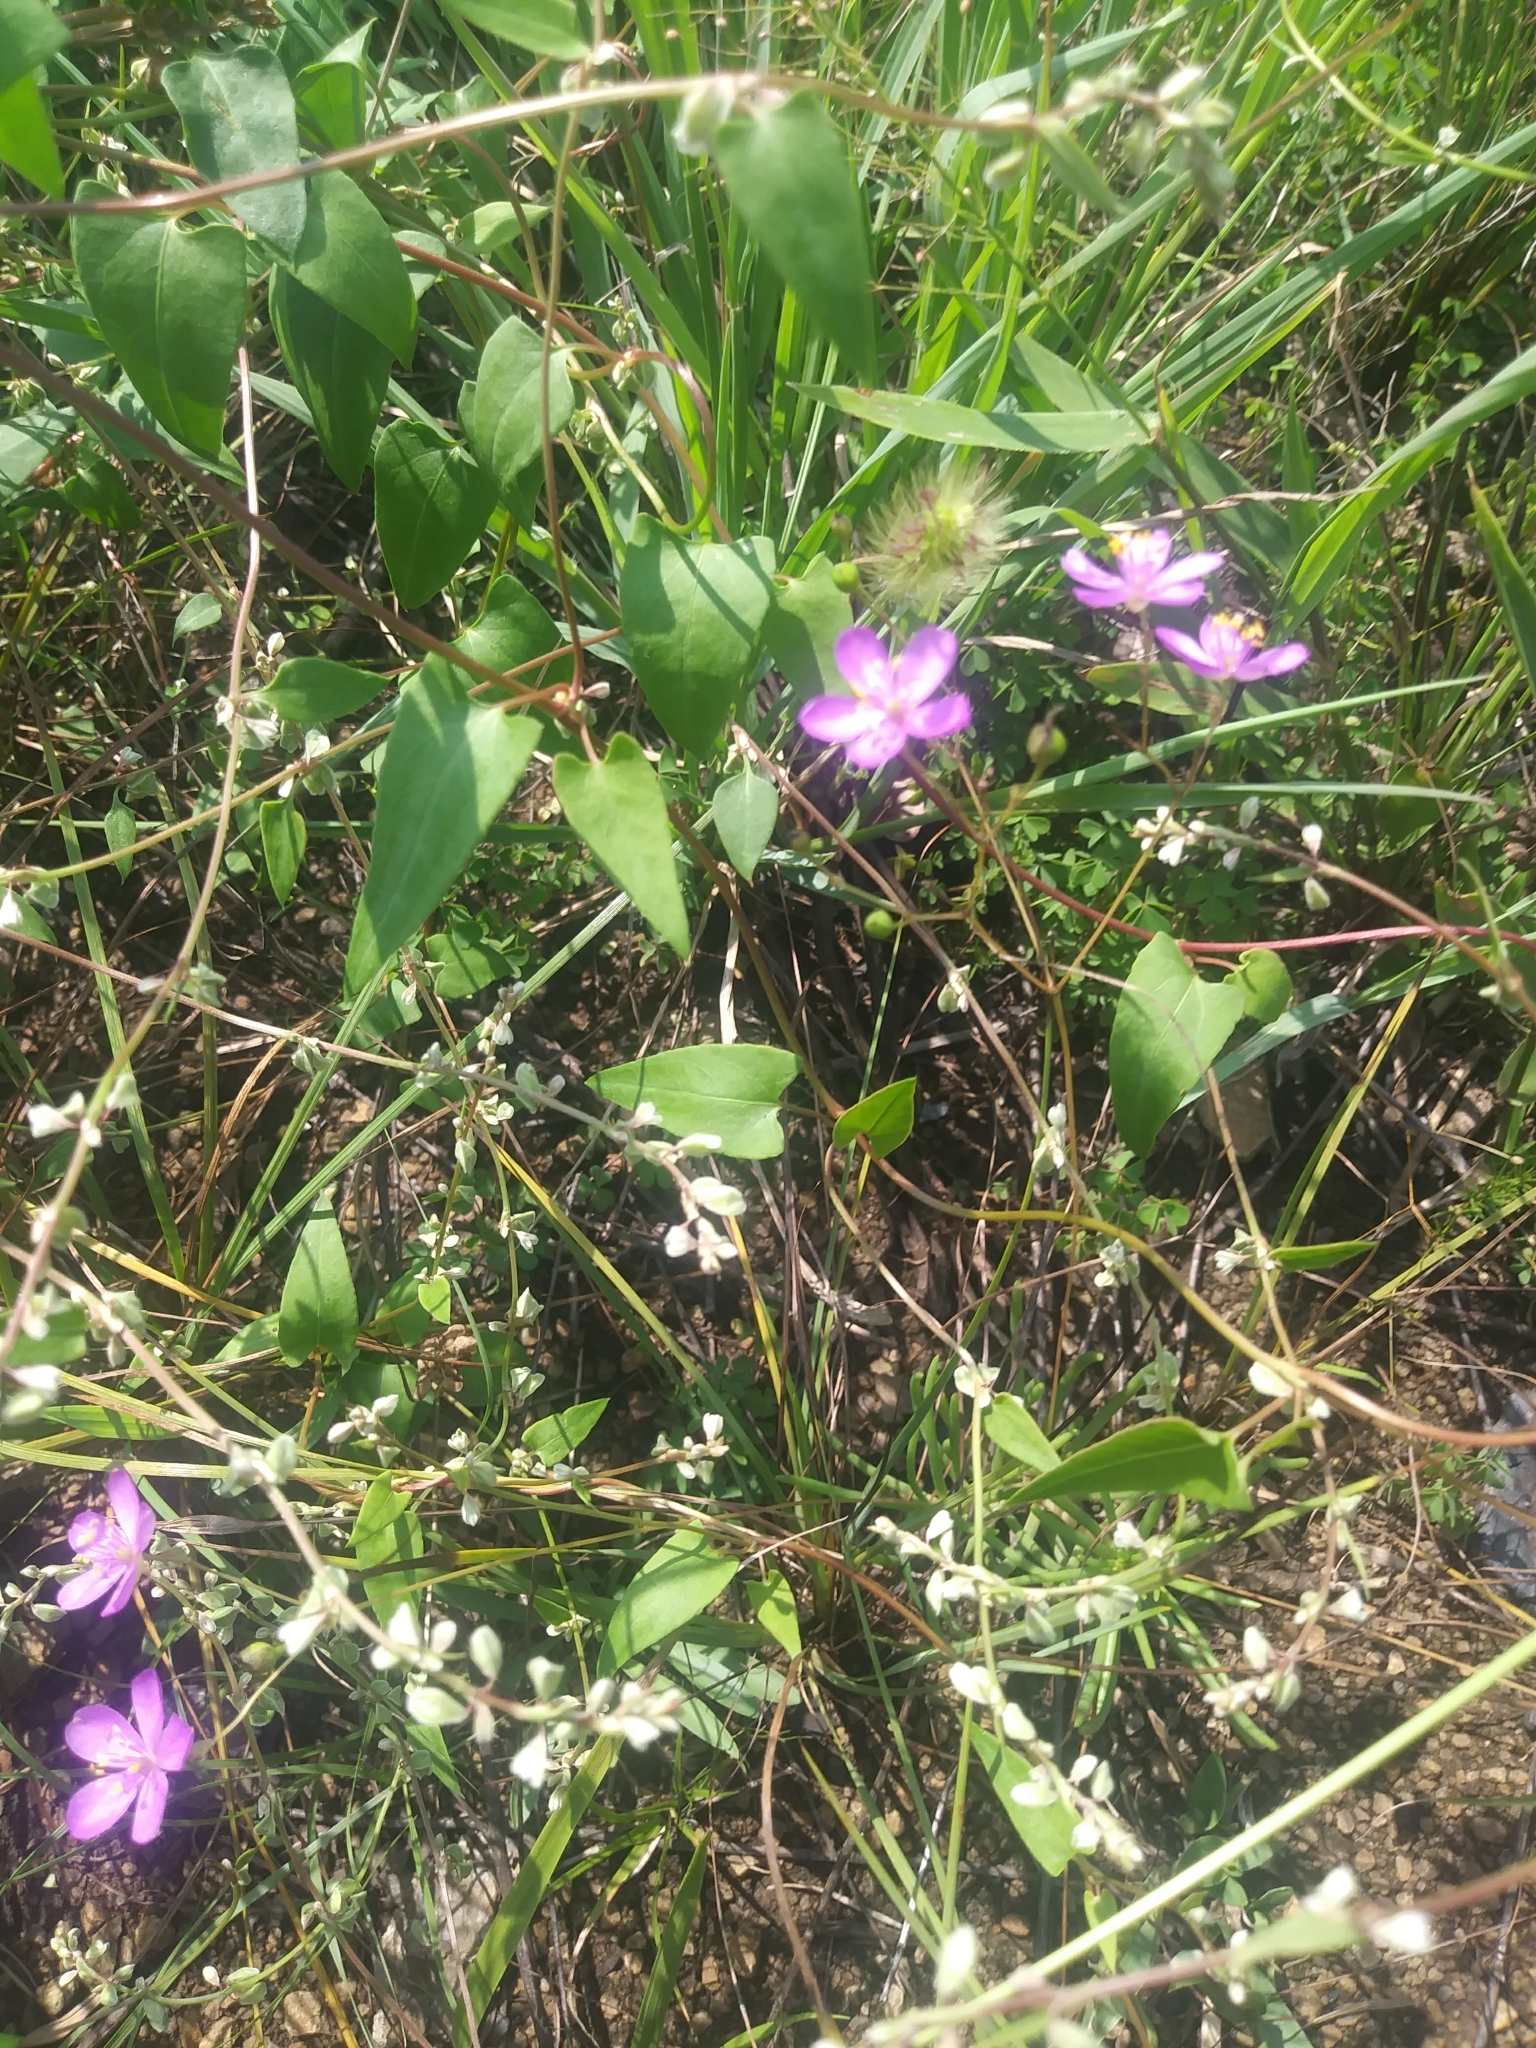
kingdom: Plantae
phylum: Tracheophyta
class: Magnoliopsida
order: Caryophyllales
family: Montiaceae
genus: Phemeranthus
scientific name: Phemeranthus teretifolius
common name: Quill fameflower
